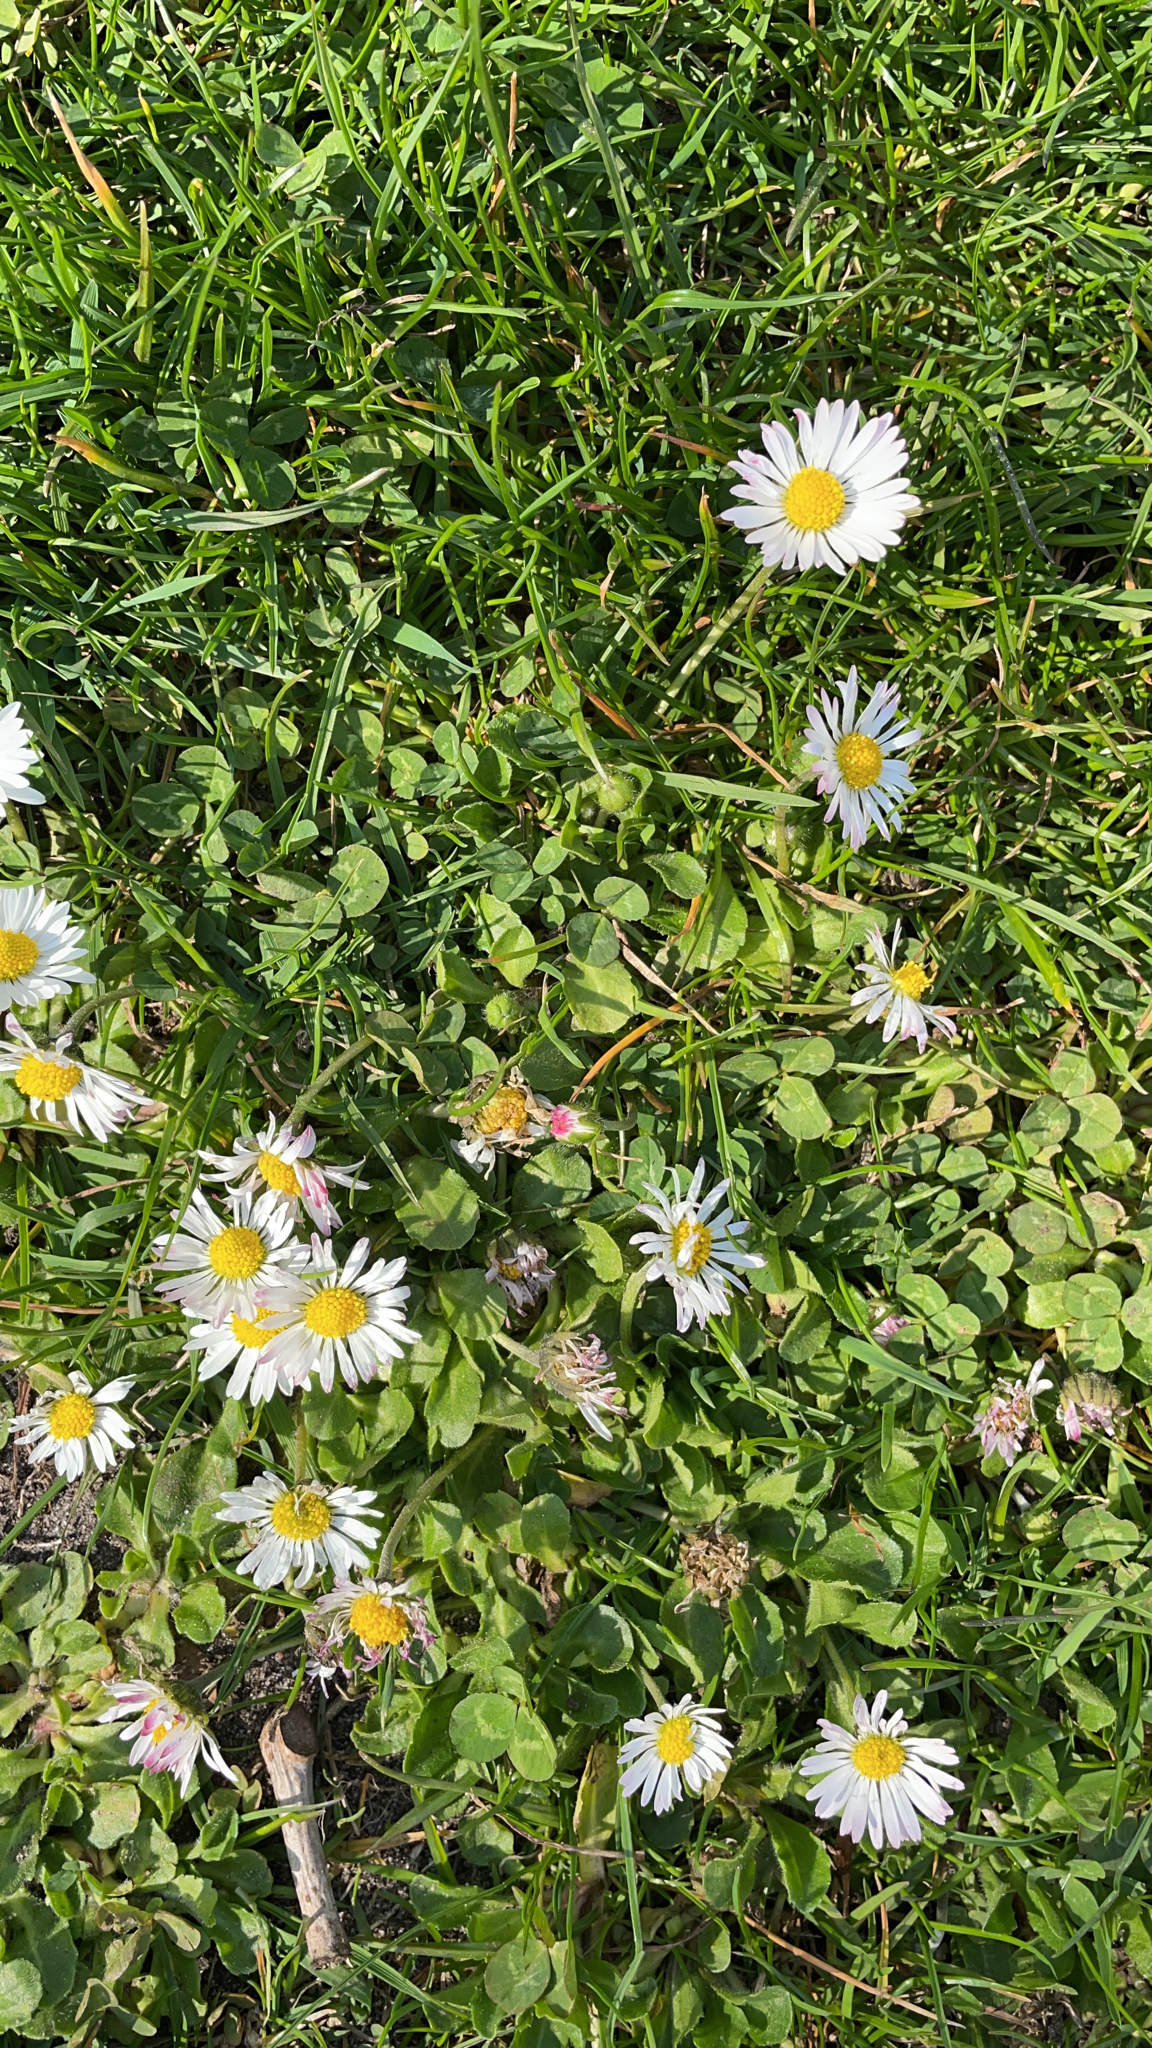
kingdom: Plantae
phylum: Tracheophyta
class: Magnoliopsida
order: Asterales
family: Asteraceae
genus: Bellis
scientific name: Bellis perennis
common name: Lawndaisy
